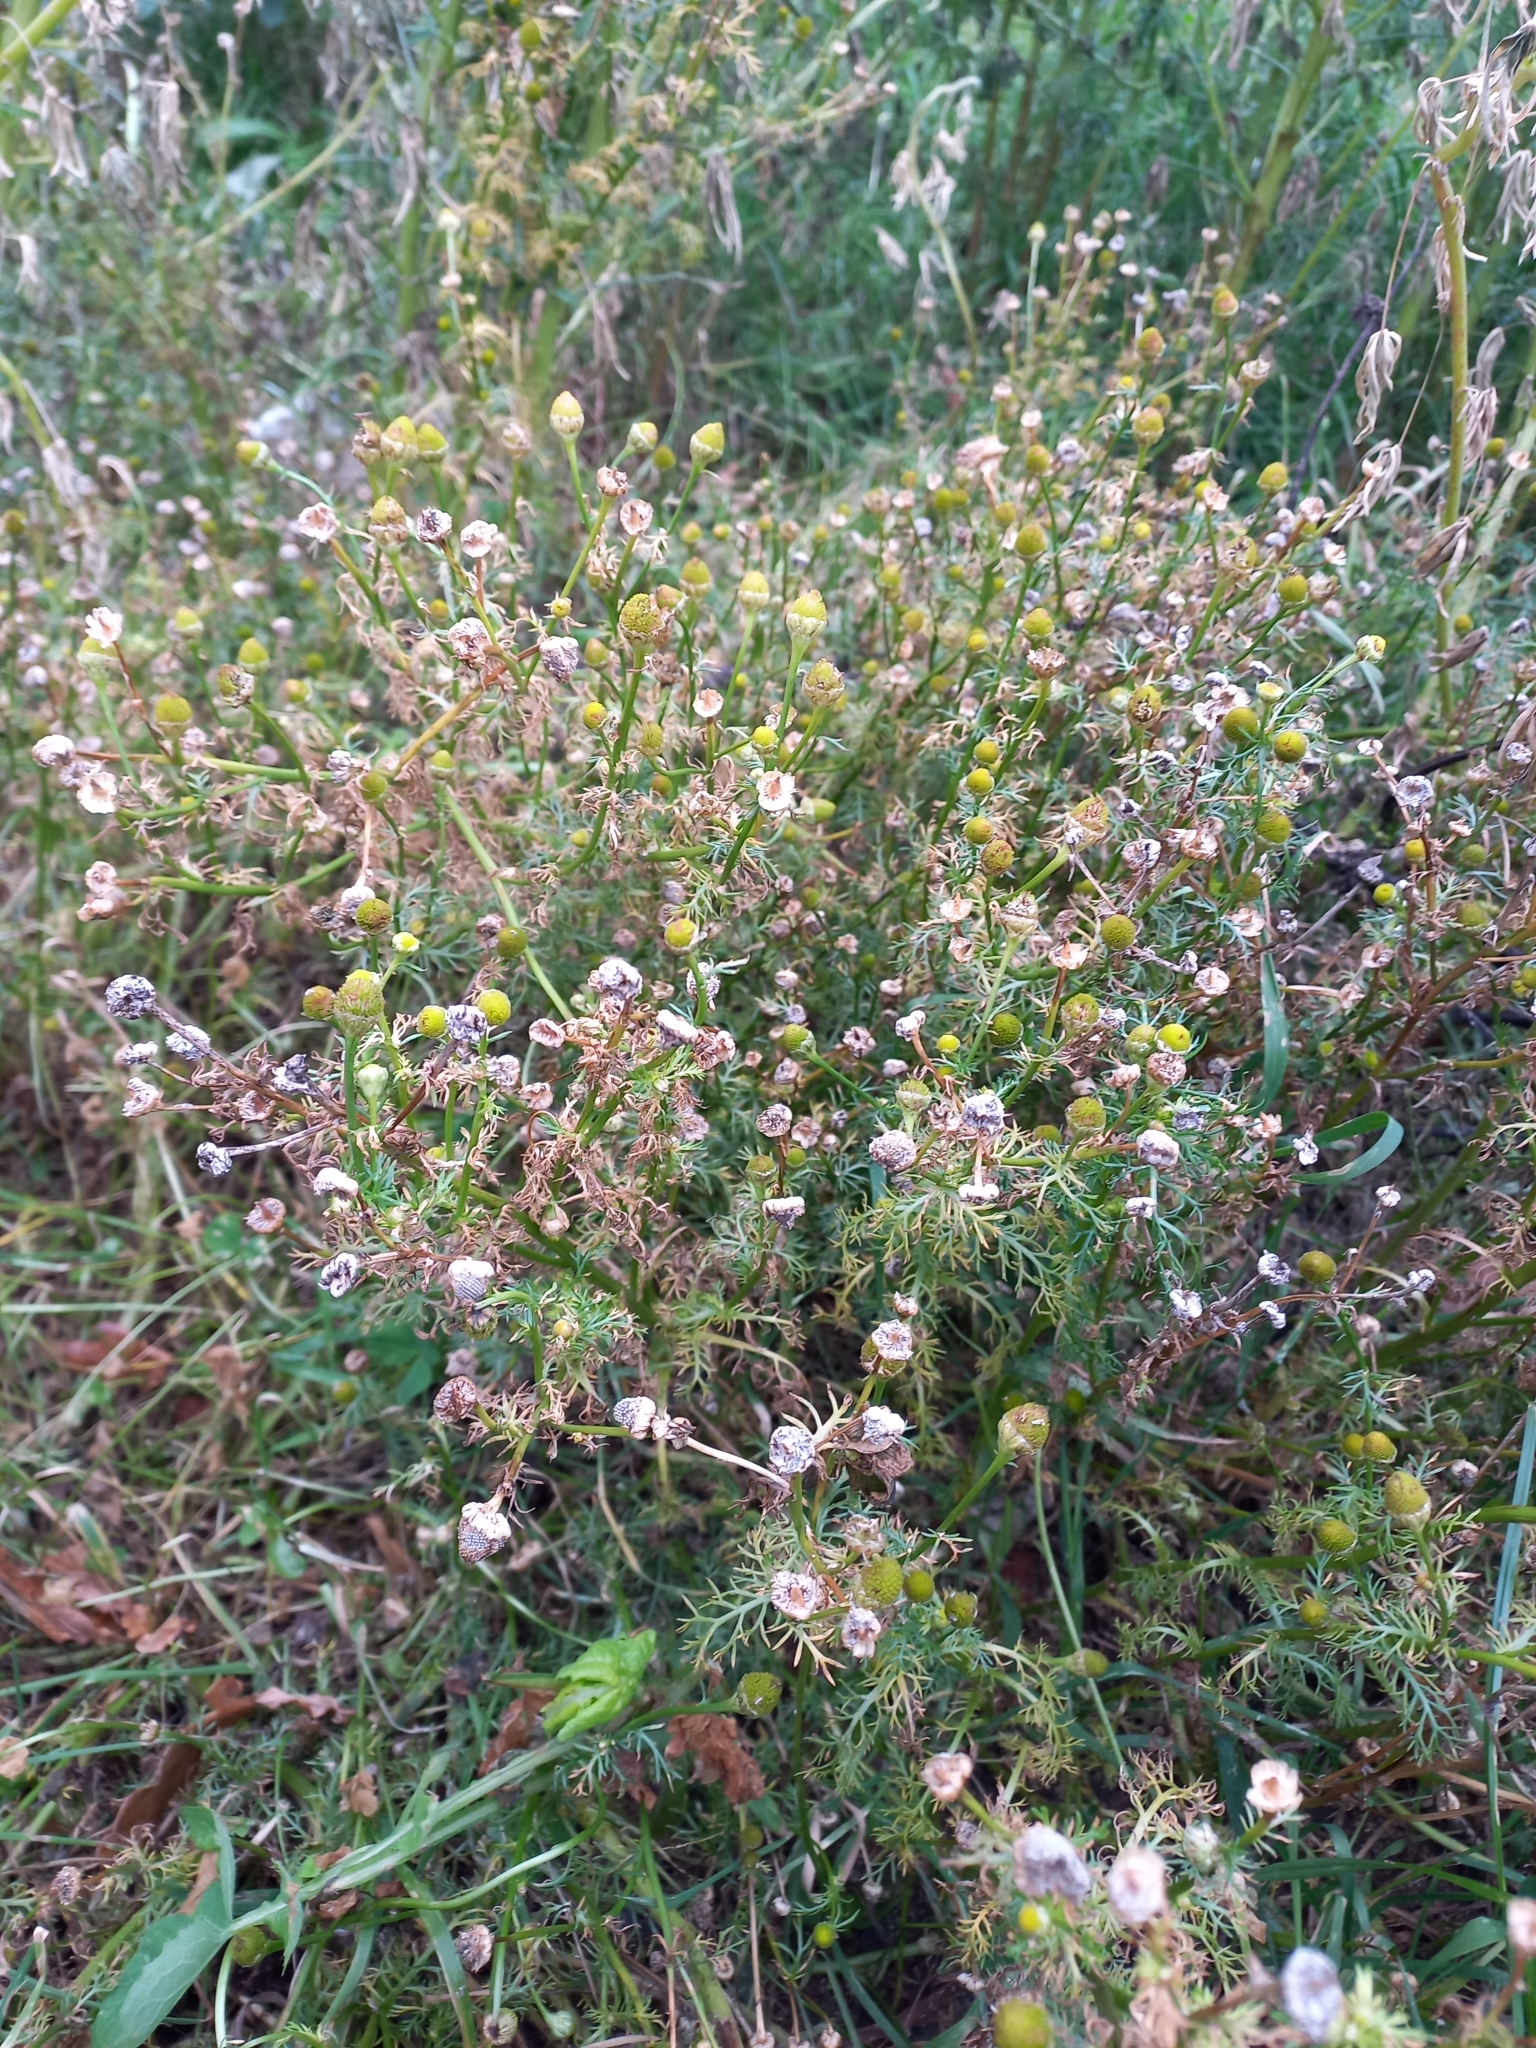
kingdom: Plantae
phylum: Tracheophyta
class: Magnoliopsida
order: Asterales
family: Asteraceae
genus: Matricaria
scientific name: Matricaria discoidea
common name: Disc mayweed
